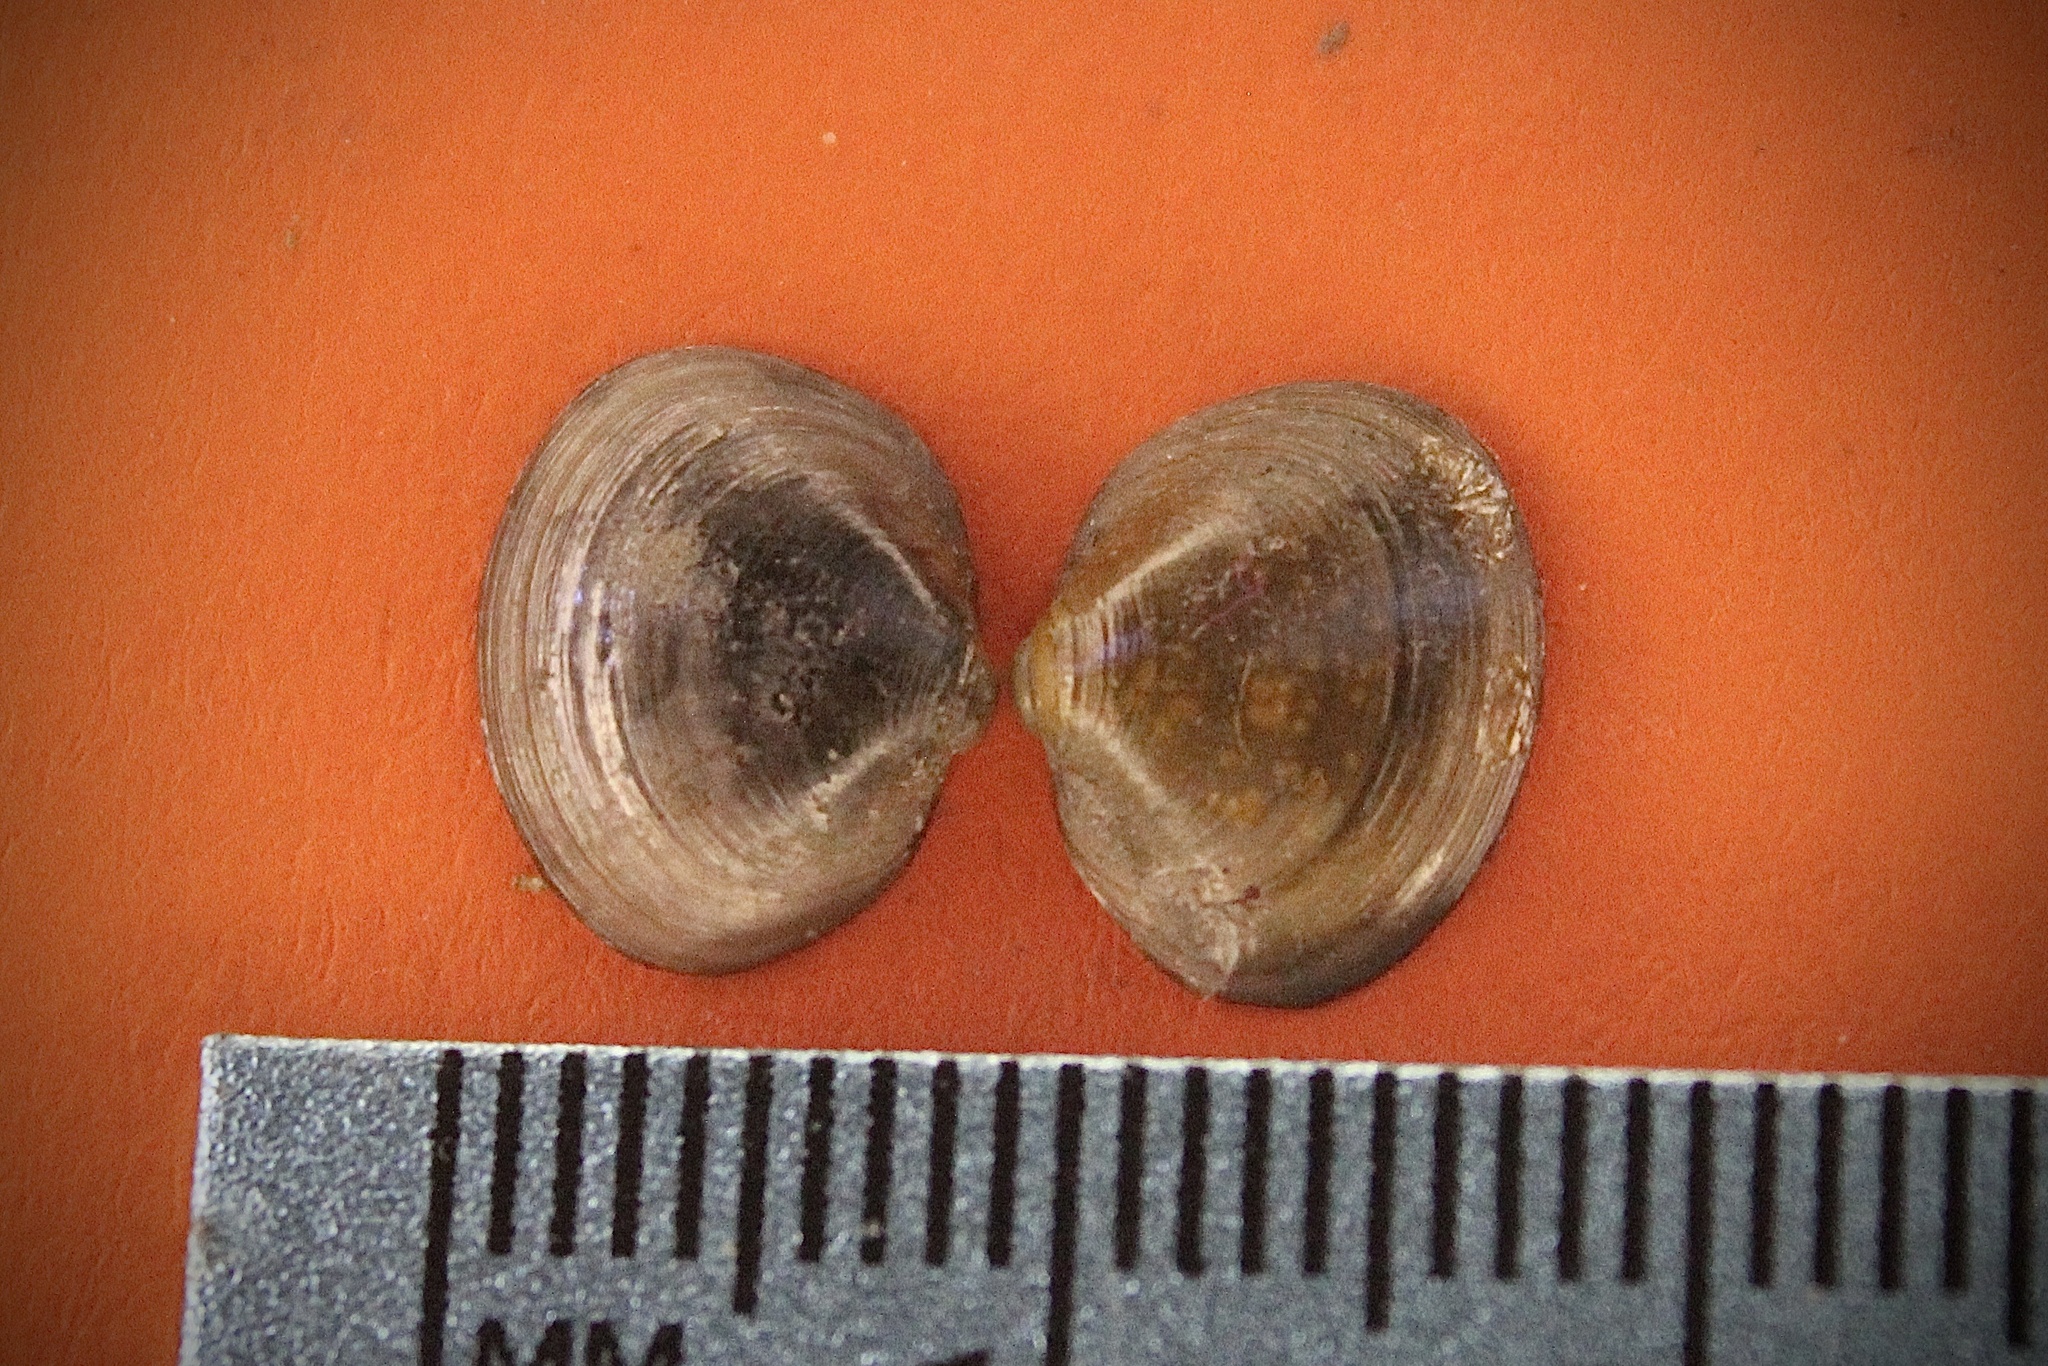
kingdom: Animalia
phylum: Mollusca
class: Bivalvia
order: Sphaeriida
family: Sphaeriidae
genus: Musculium
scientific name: Musculium lacustre
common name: Lake fingernailclam
